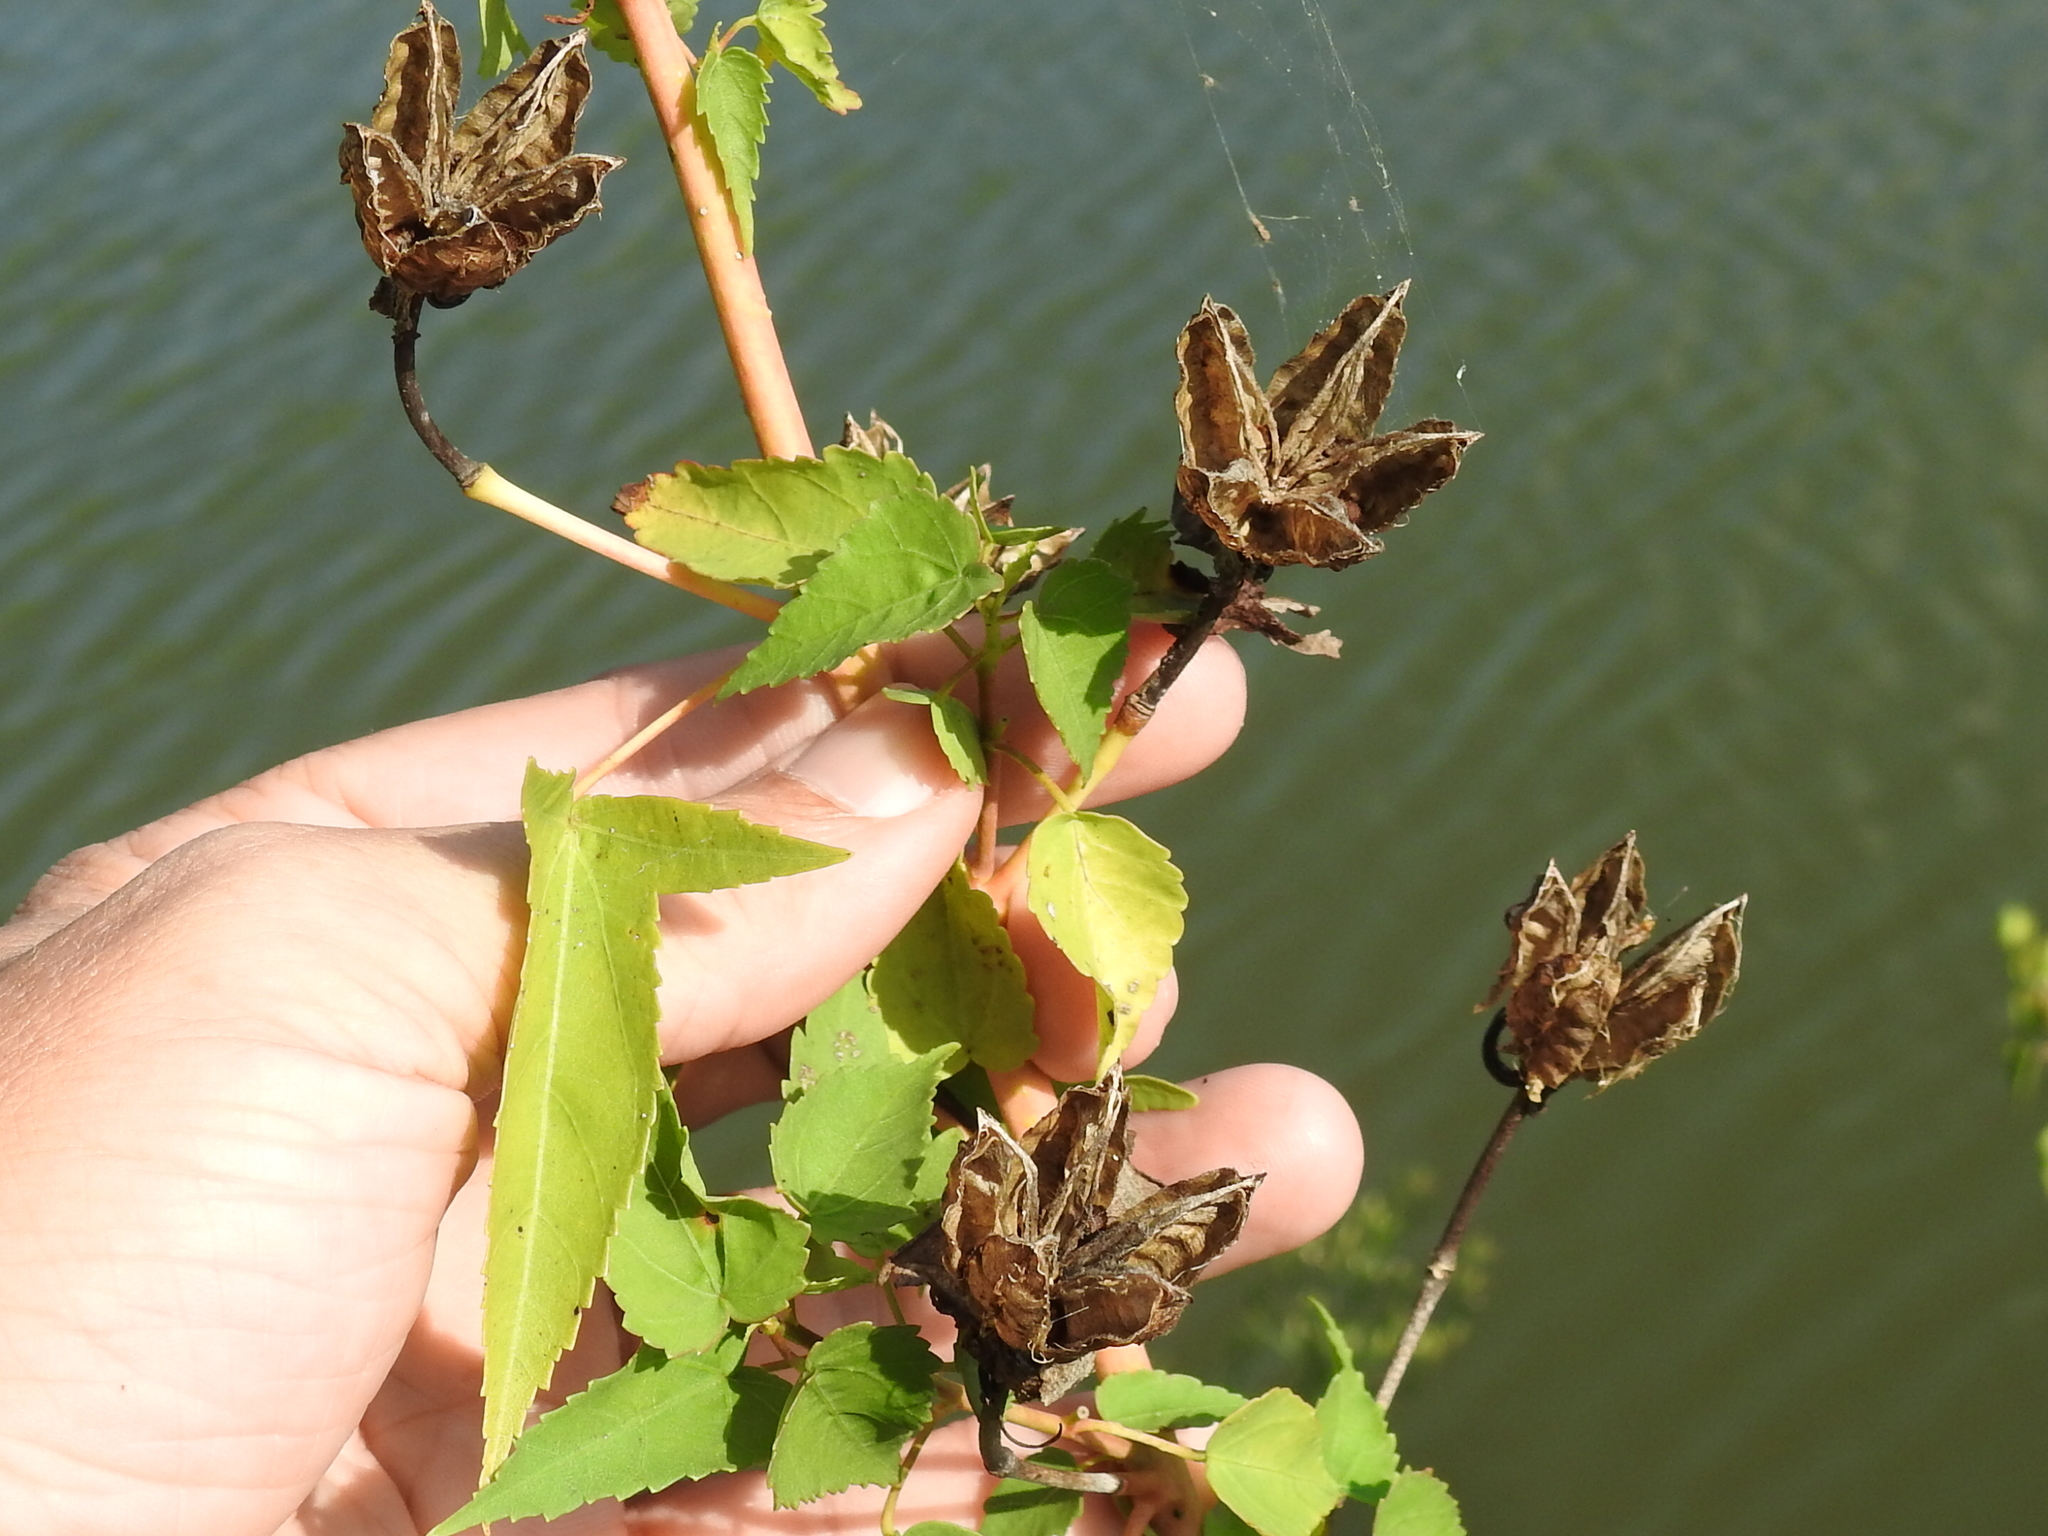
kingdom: Plantae
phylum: Tracheophyta
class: Magnoliopsida
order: Malvales
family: Malvaceae
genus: Hibiscus
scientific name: Hibiscus laevis
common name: Scarlet rose-mallow
